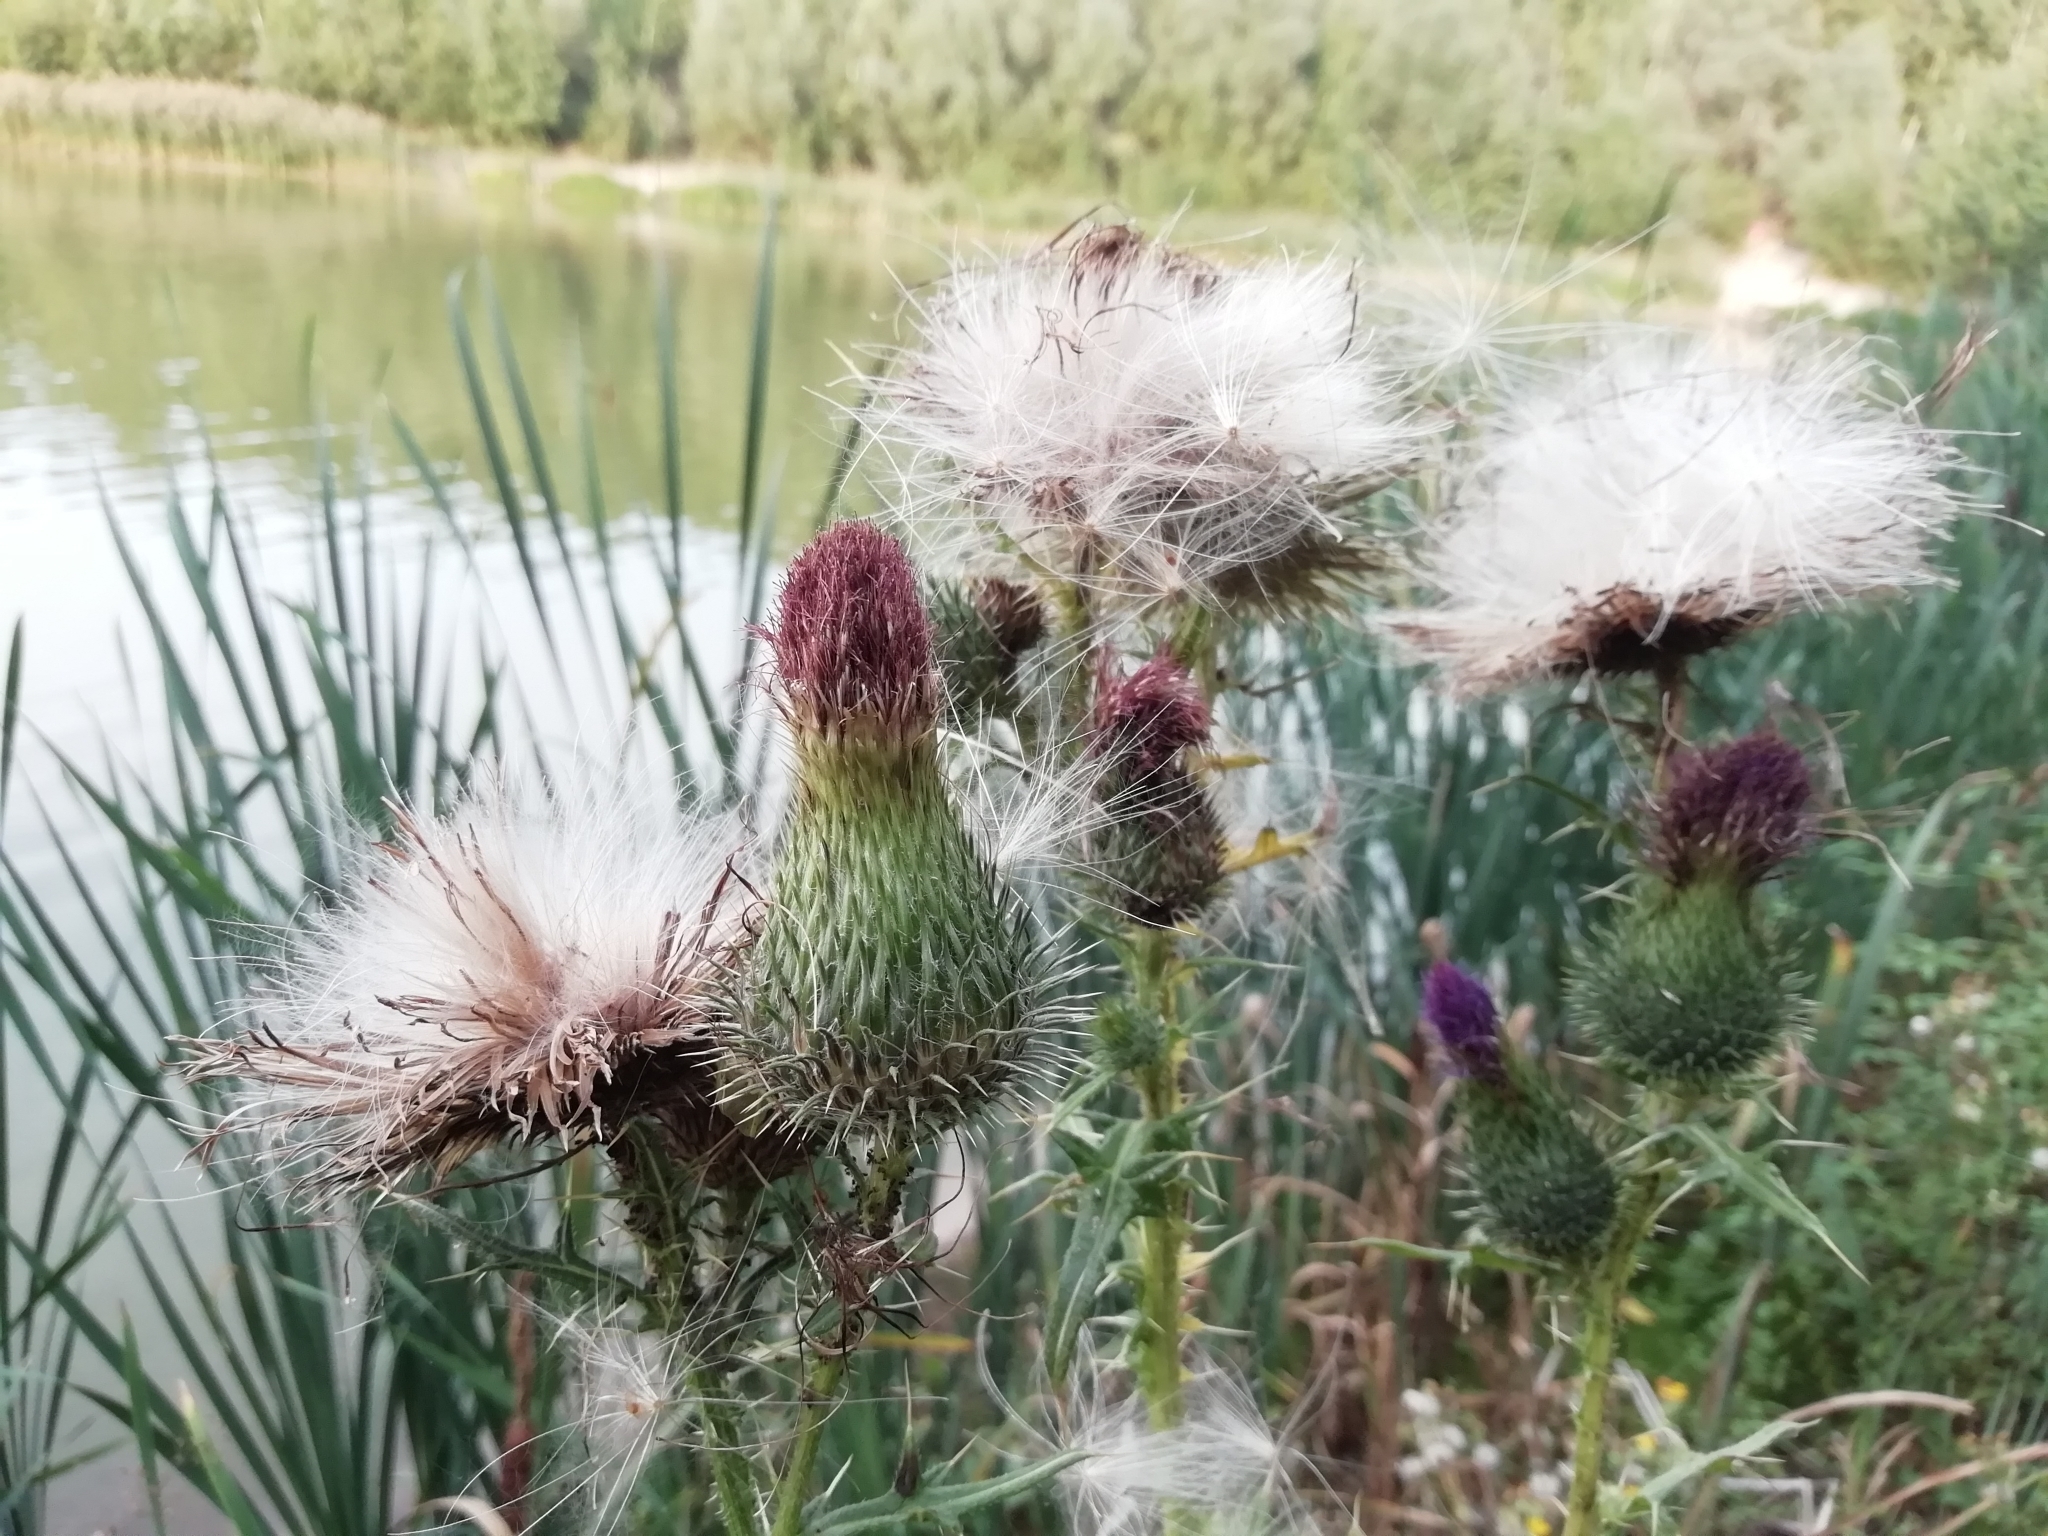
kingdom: Plantae
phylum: Tracheophyta
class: Magnoliopsida
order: Asterales
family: Asteraceae
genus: Cirsium
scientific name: Cirsium vulgare
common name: Bull thistle
